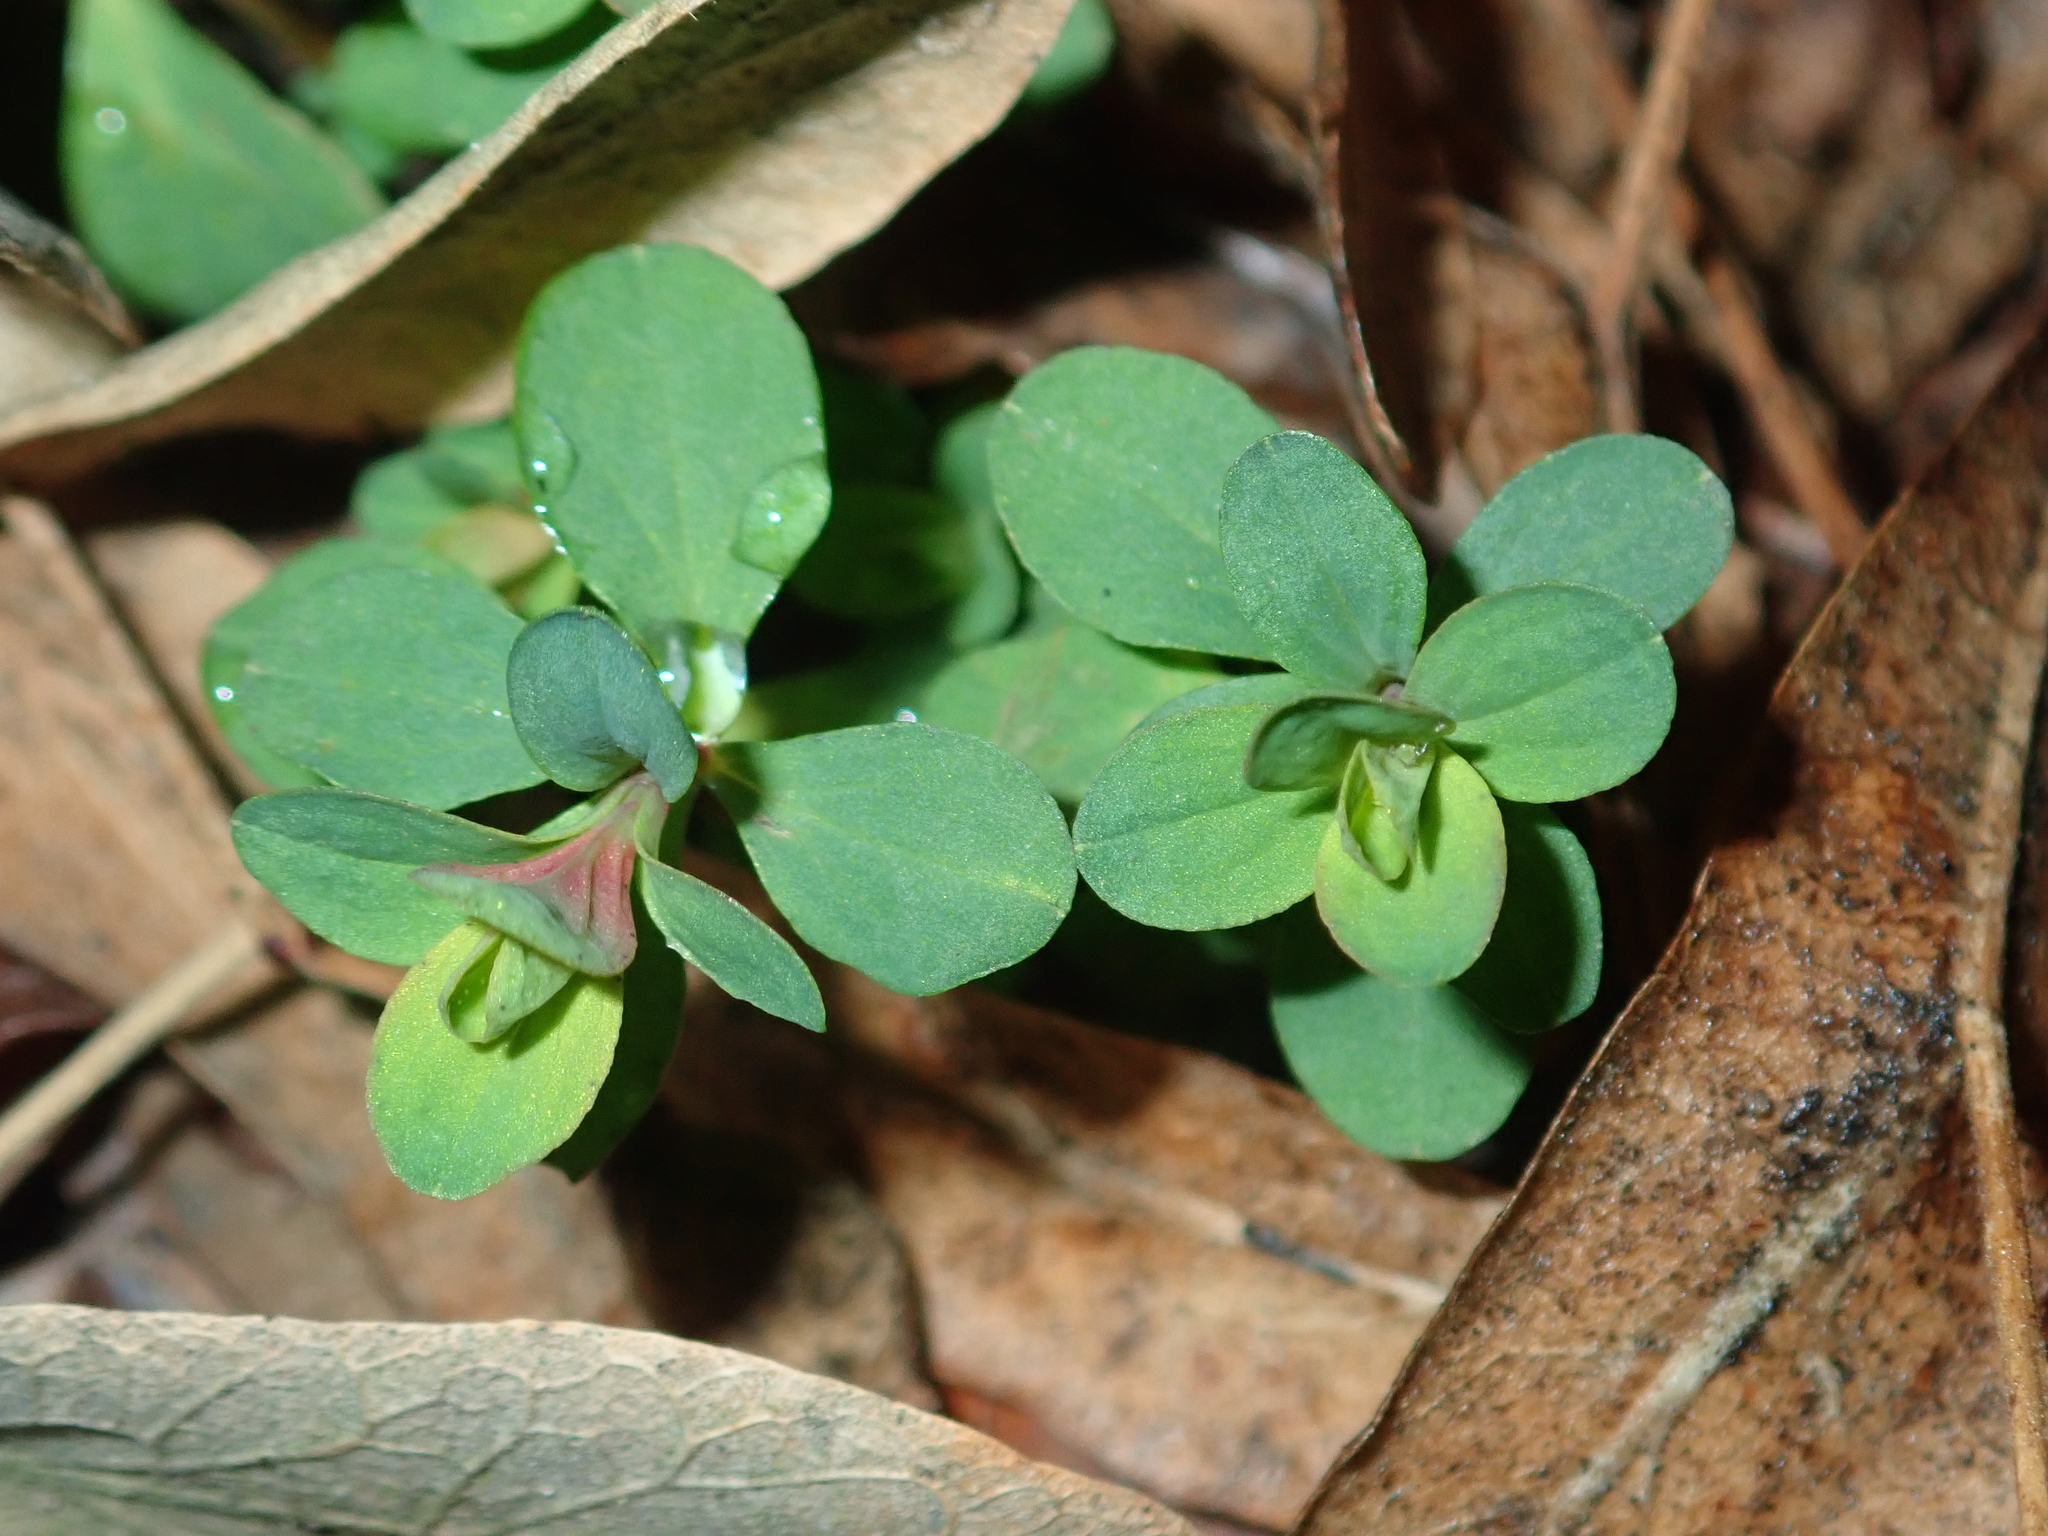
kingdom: Plantae
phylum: Tracheophyta
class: Magnoliopsida
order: Malpighiales
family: Hypericaceae
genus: Hypericum
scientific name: Hypericum perforatum
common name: Common st. johnswort
